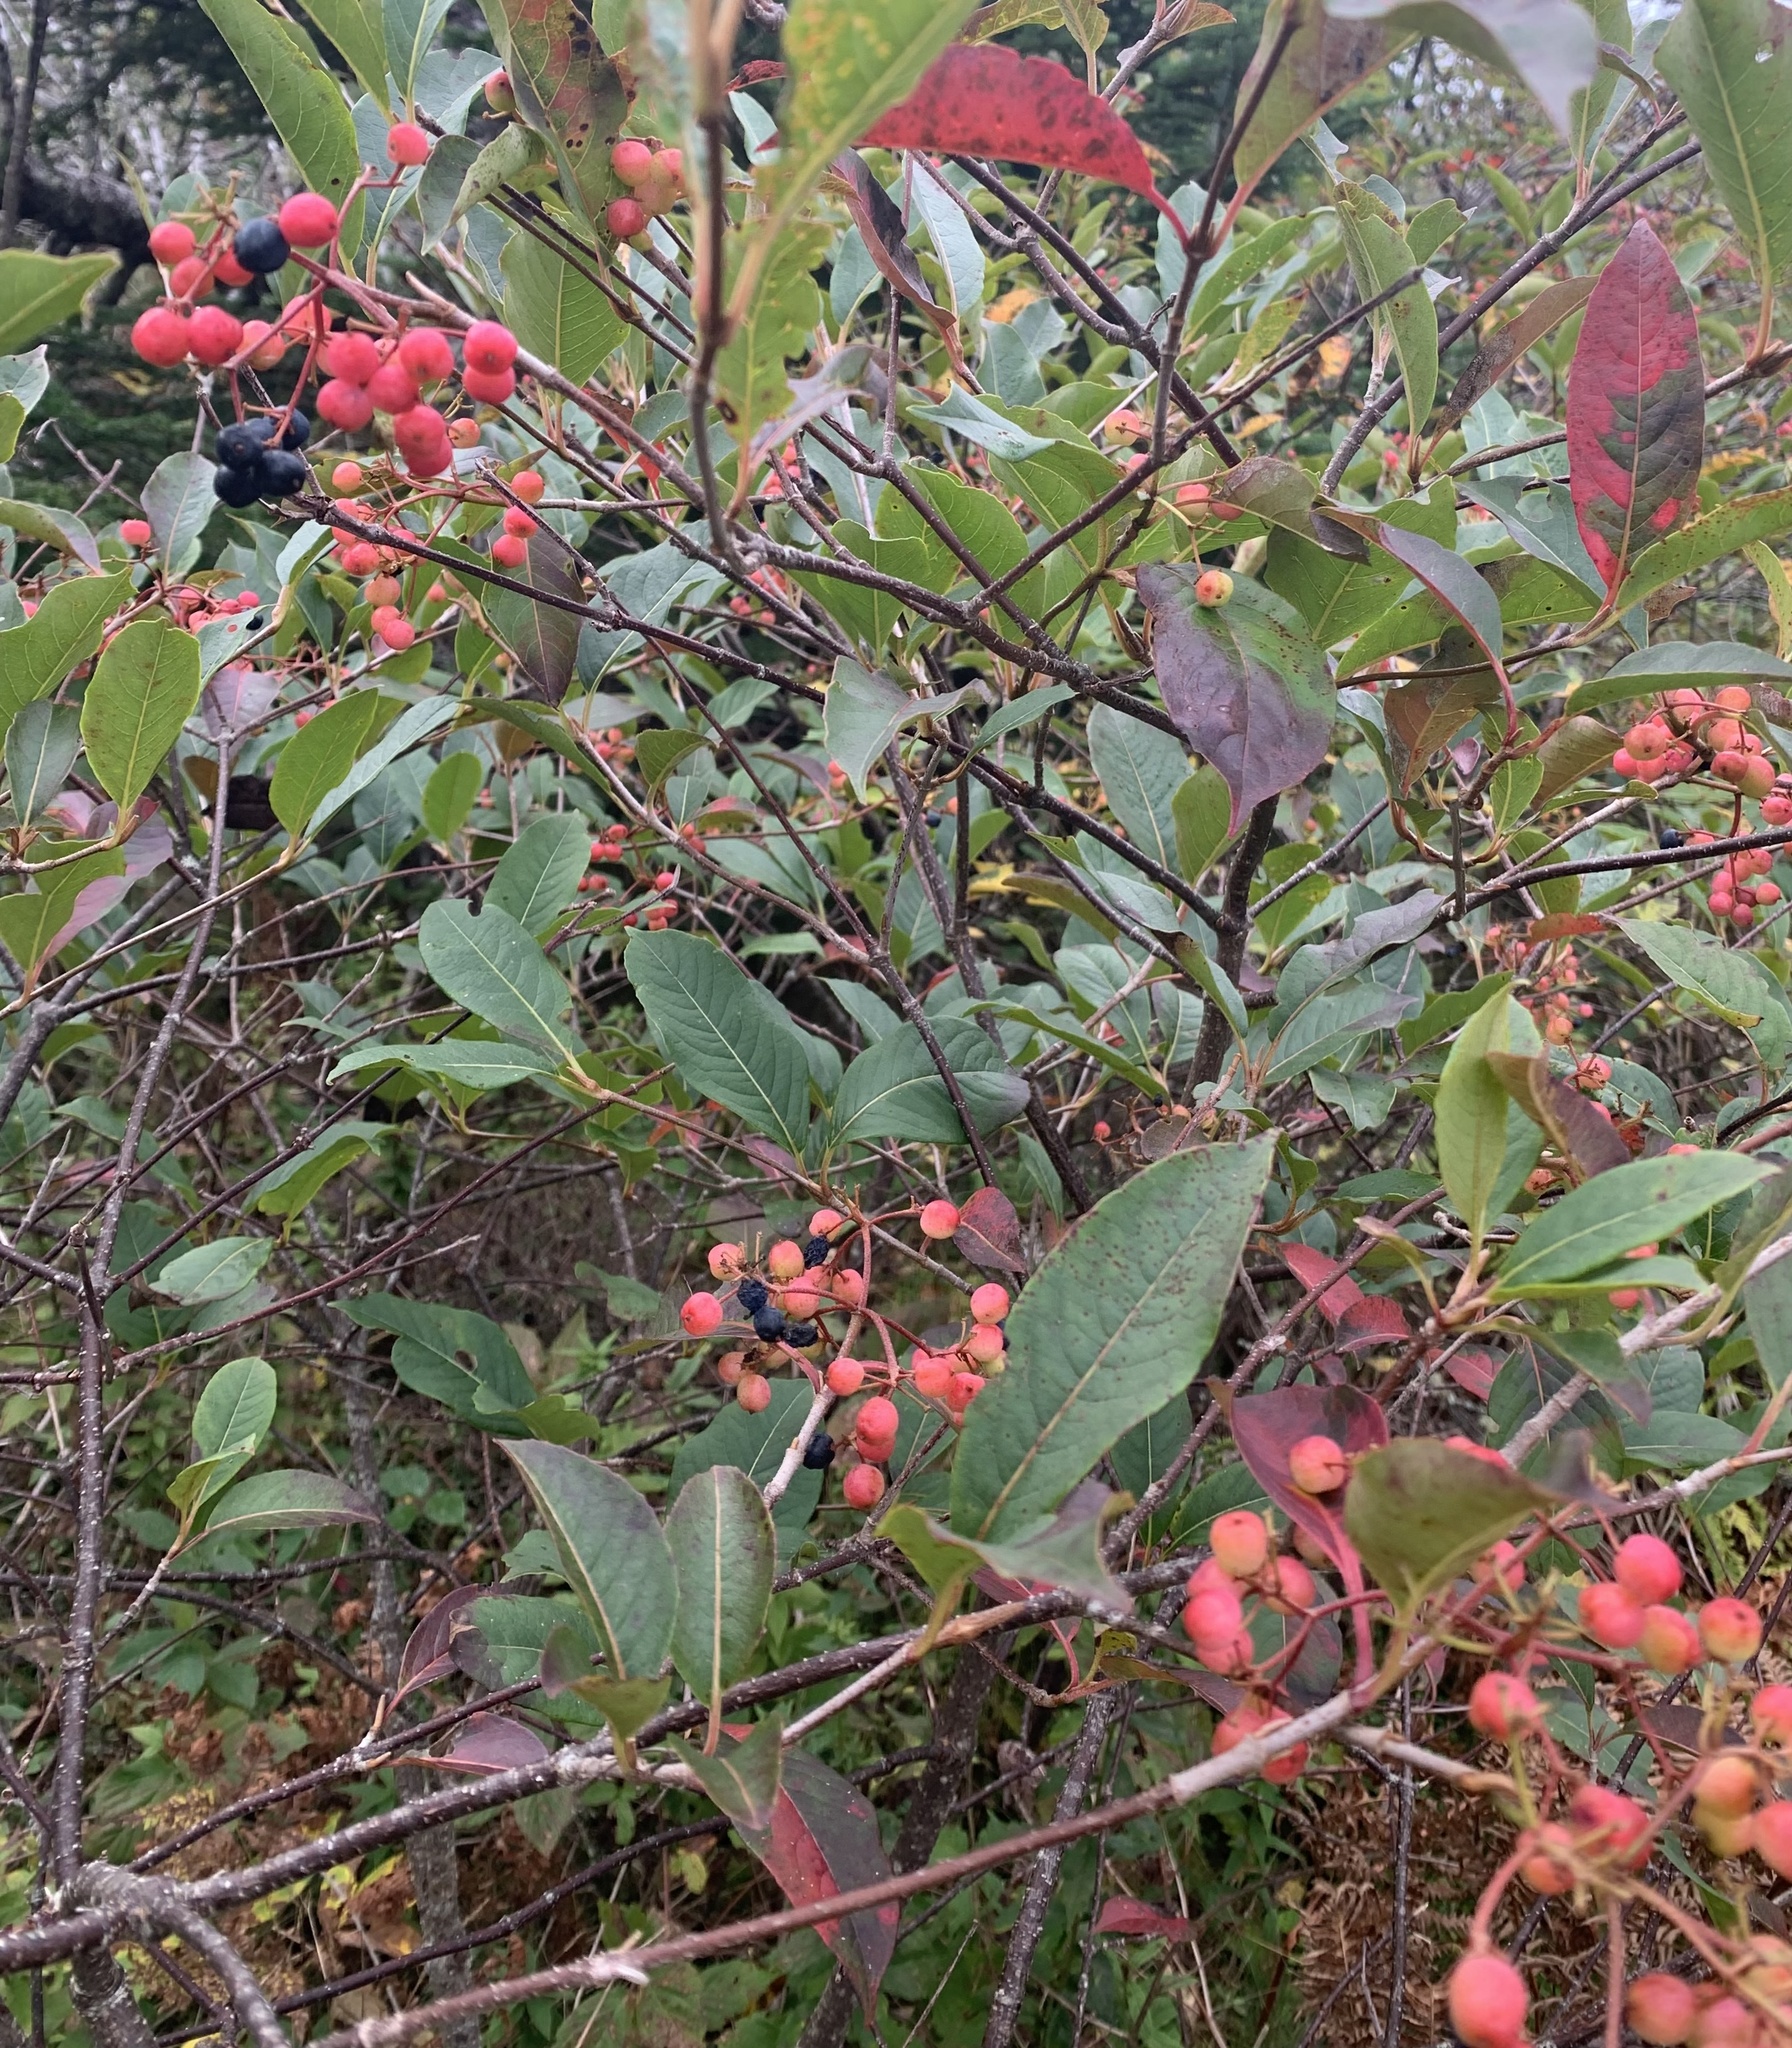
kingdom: Plantae
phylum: Tracheophyta
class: Magnoliopsida
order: Dipsacales
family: Viburnaceae
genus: Viburnum
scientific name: Viburnum cassinoides
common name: Swamp haw
